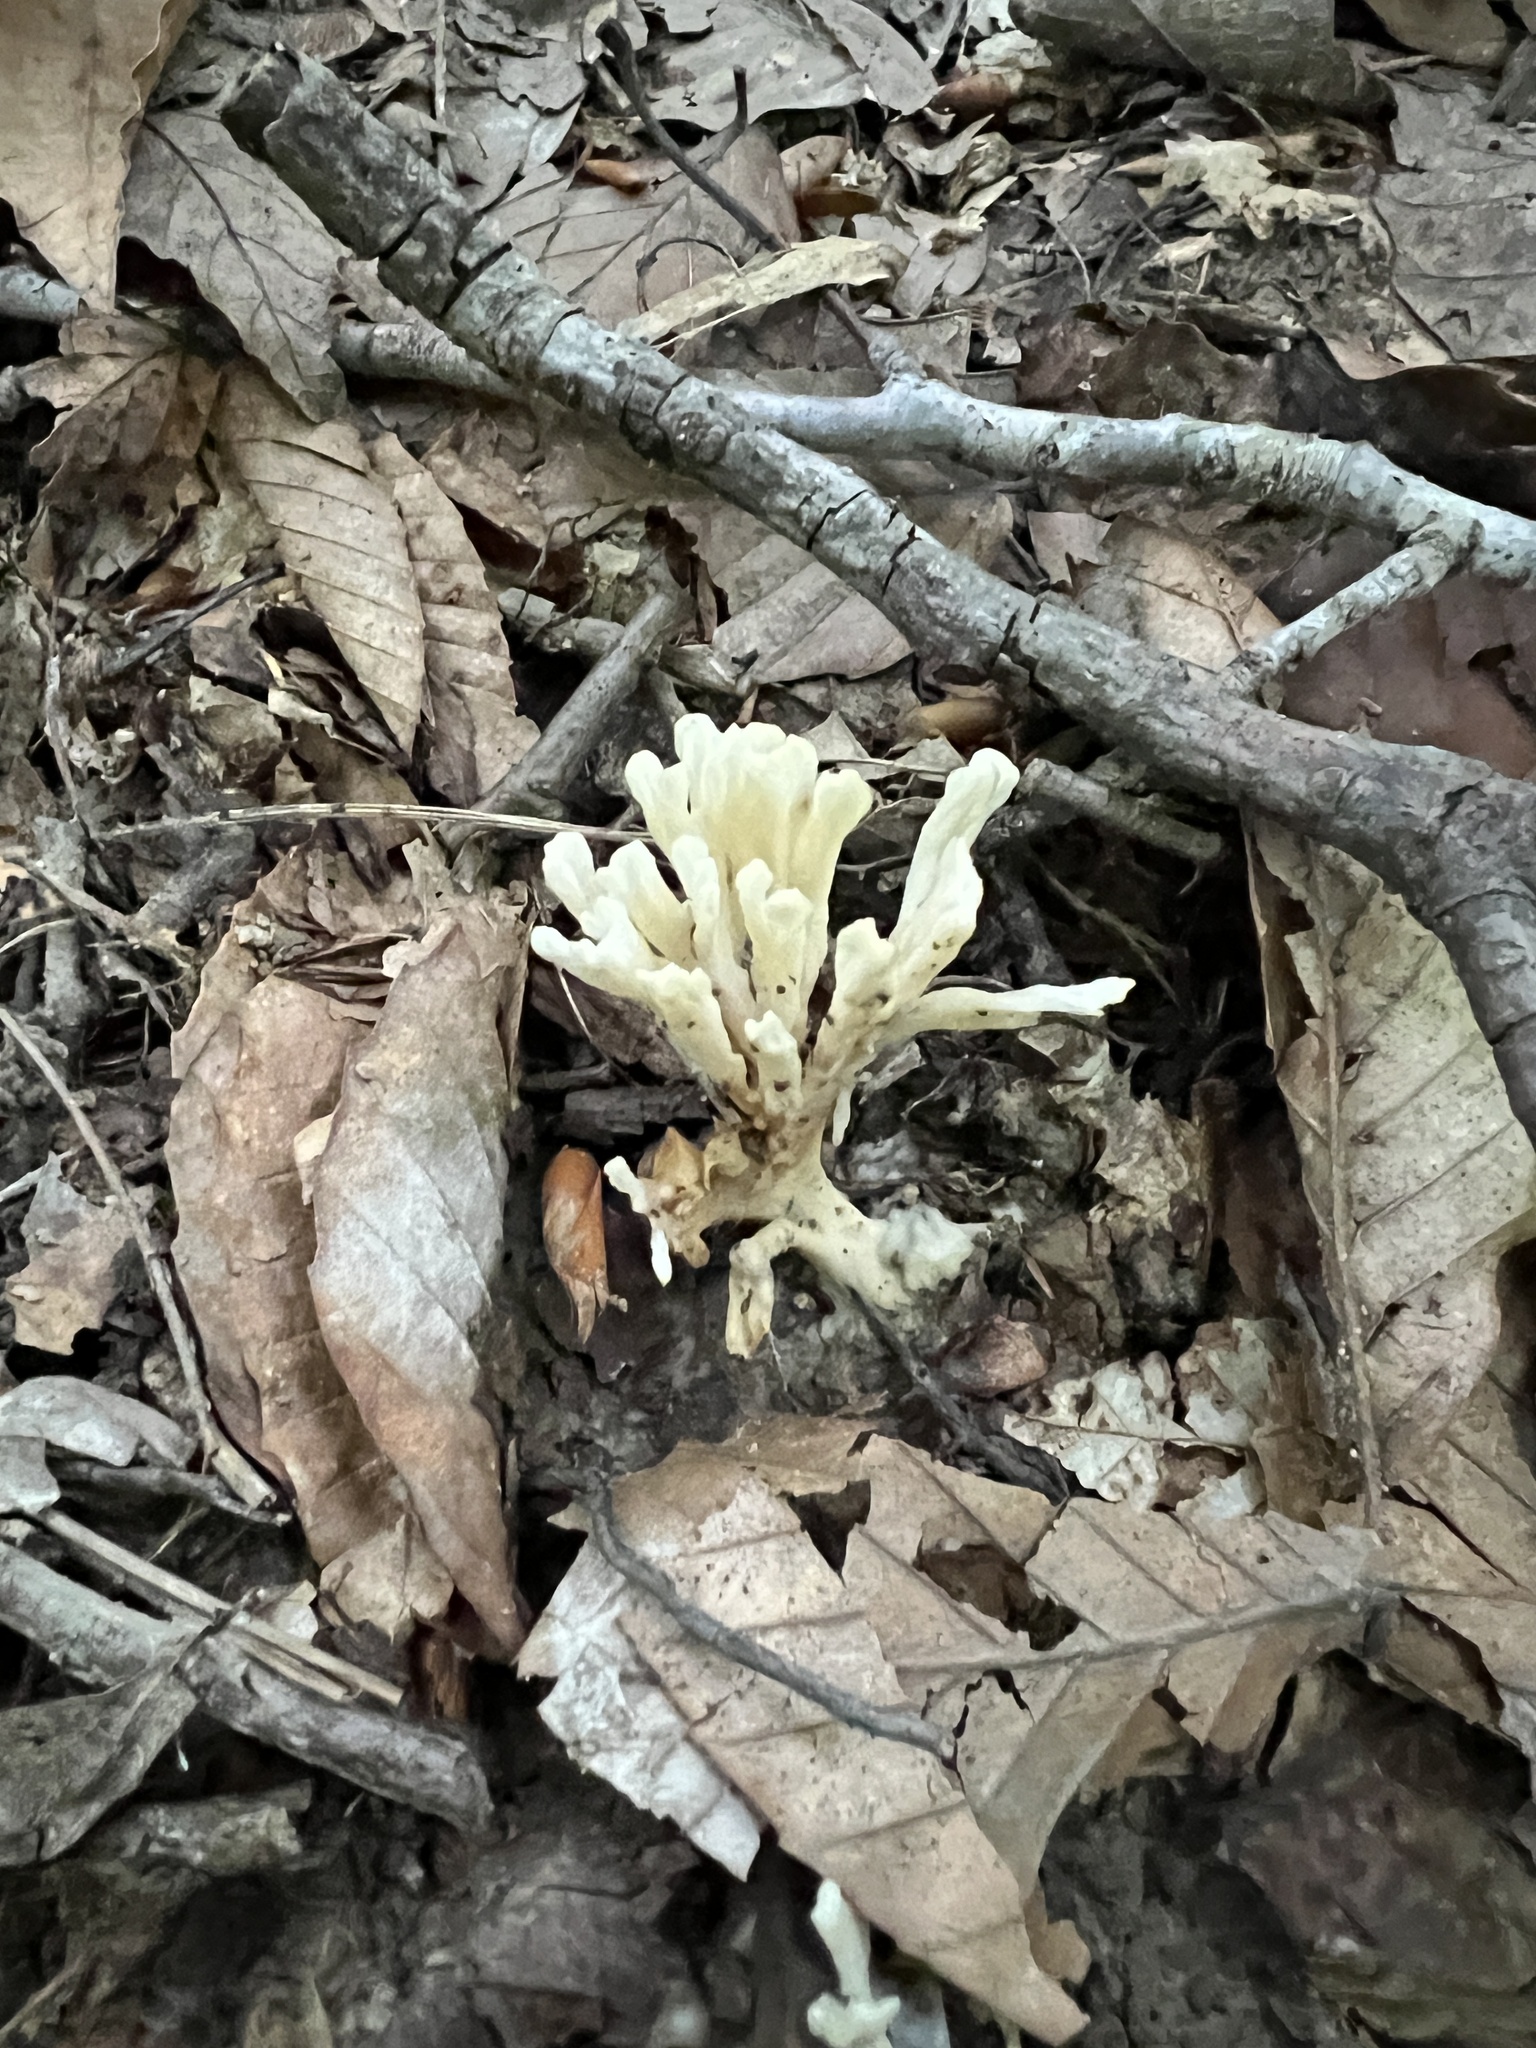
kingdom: Fungi
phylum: Basidiomycota
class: Agaricomycetes
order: Sebacinales
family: Sebacinaceae
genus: Sebacina
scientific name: Sebacina schweinitzii
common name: Jellied false coral fungus
